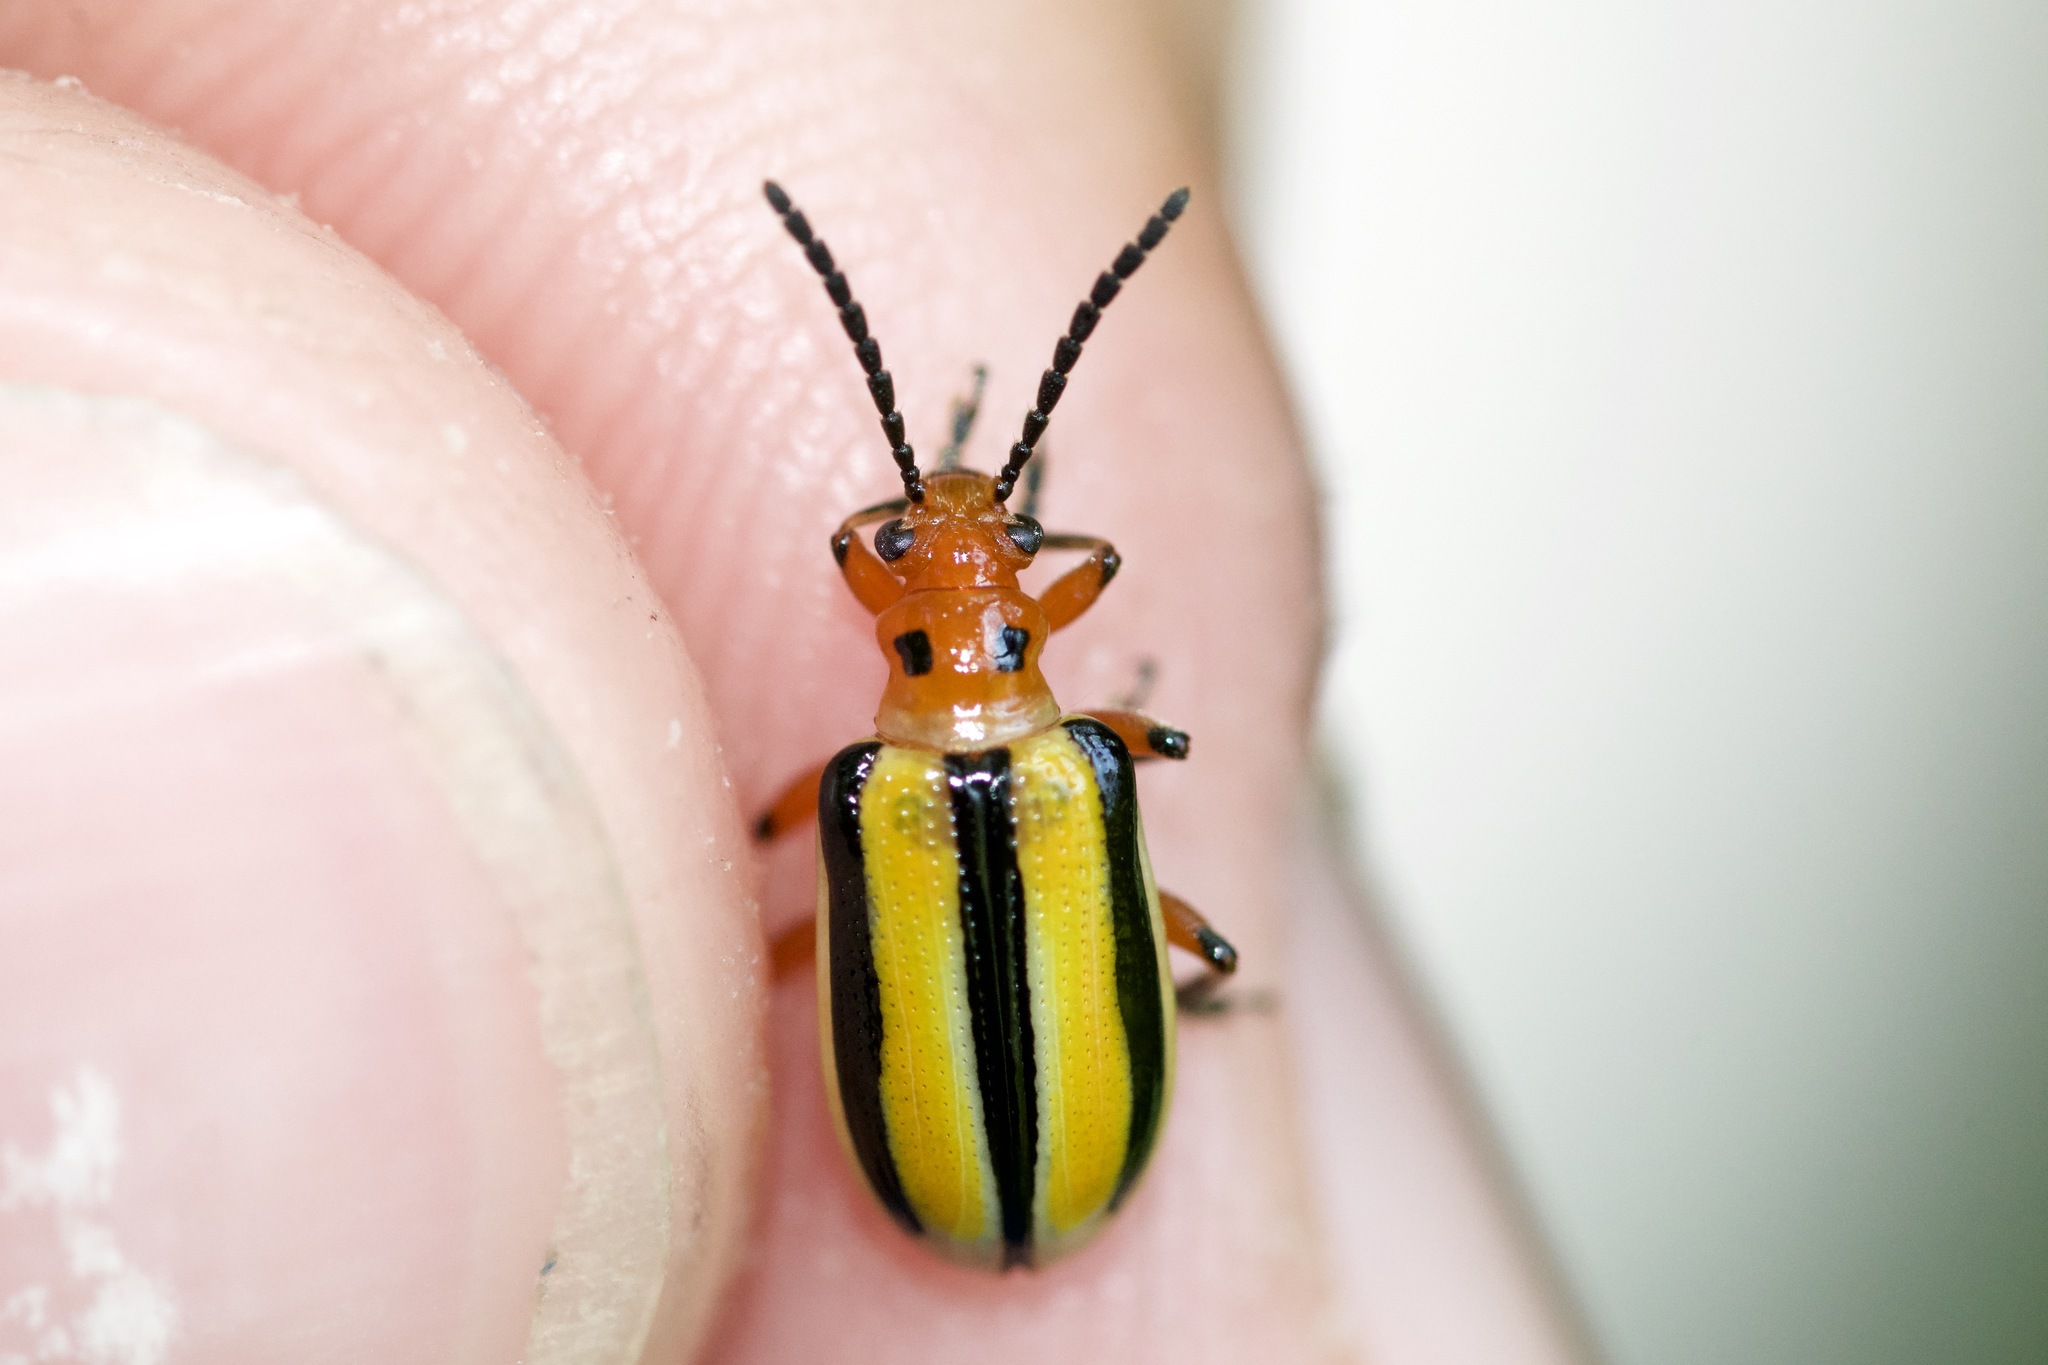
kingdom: Animalia
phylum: Arthropoda
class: Insecta
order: Coleoptera
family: Chrysomelidae
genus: Lema
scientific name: Lema daturaphila
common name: Leaf beetle
